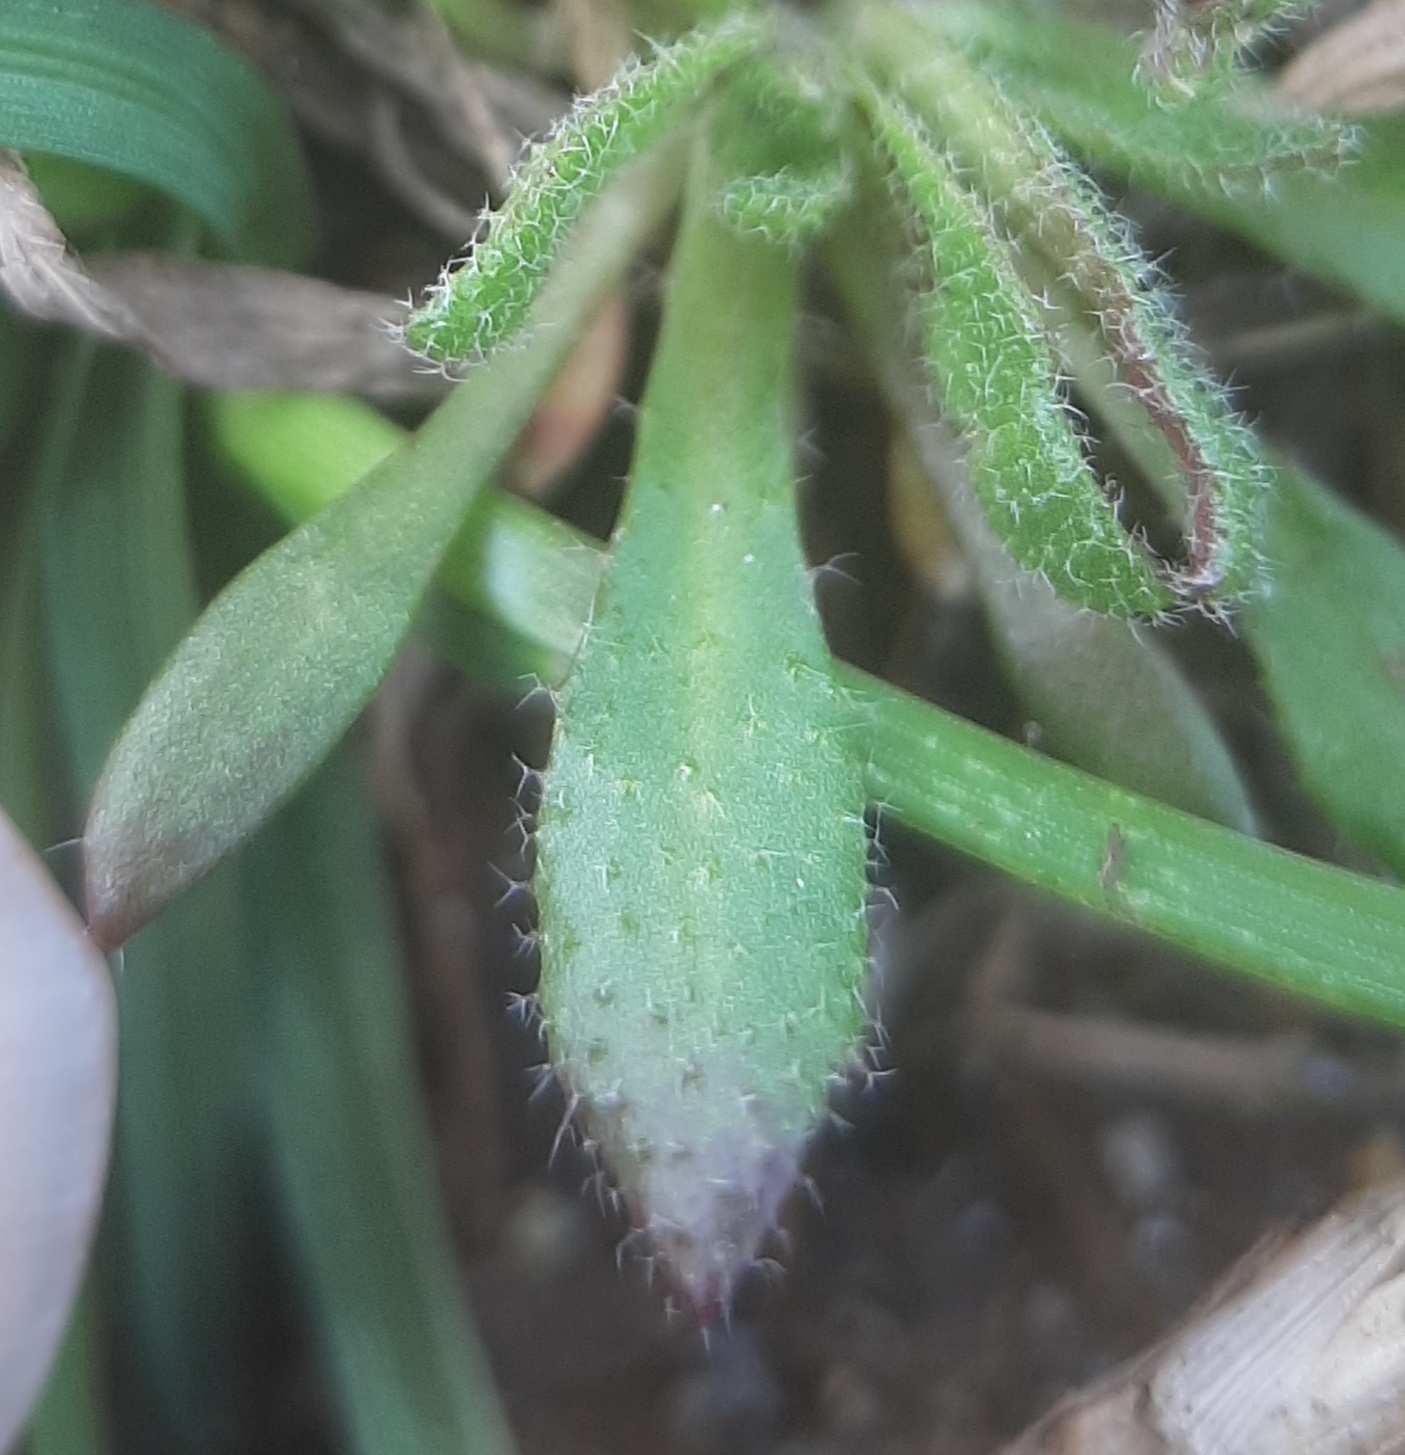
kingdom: Plantae
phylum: Tracheophyta
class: Magnoliopsida
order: Brassicales
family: Brassicaceae
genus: Draba
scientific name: Draba verna
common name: Spring draba
